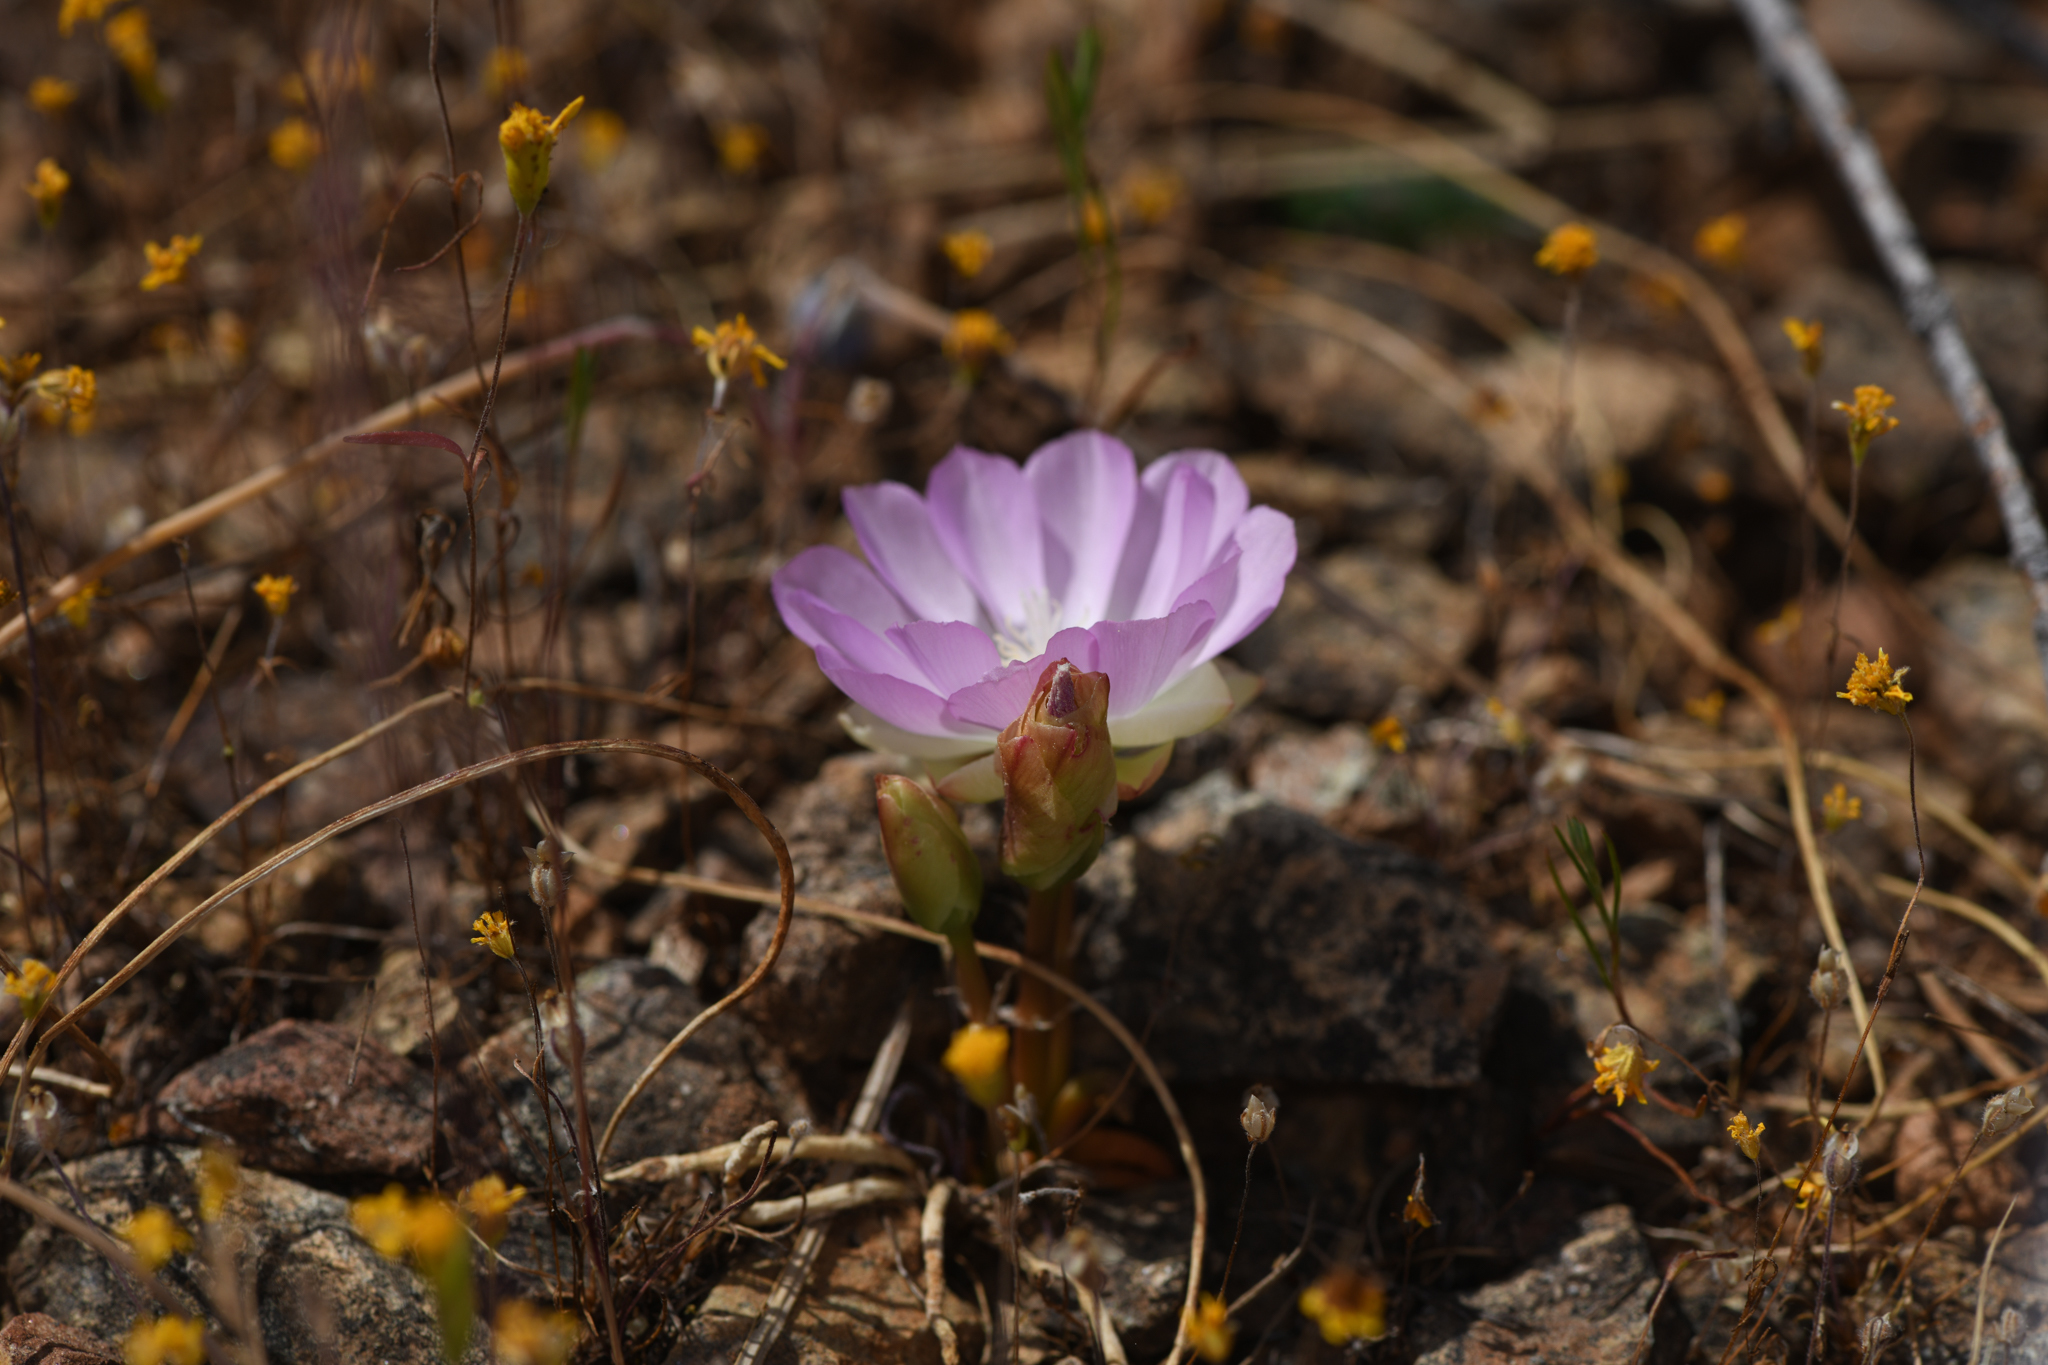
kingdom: Plantae
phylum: Tracheophyta
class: Magnoliopsida
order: Caryophyllales
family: Montiaceae
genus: Lewisia
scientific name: Lewisia rediviva
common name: Bitter-root
